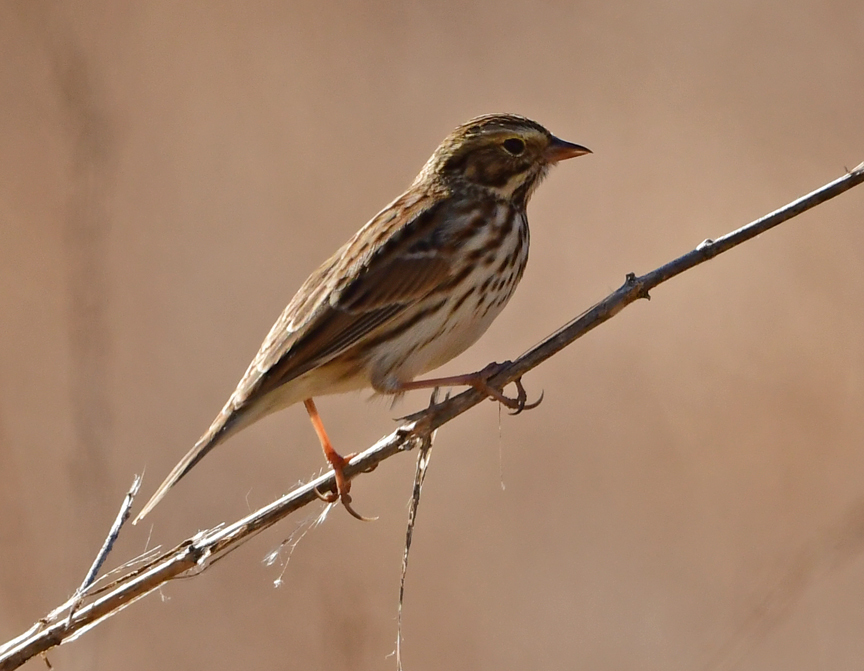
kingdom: Animalia
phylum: Chordata
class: Aves
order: Passeriformes
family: Passerellidae
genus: Passerculus
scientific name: Passerculus sandwichensis
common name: Savannah sparrow
